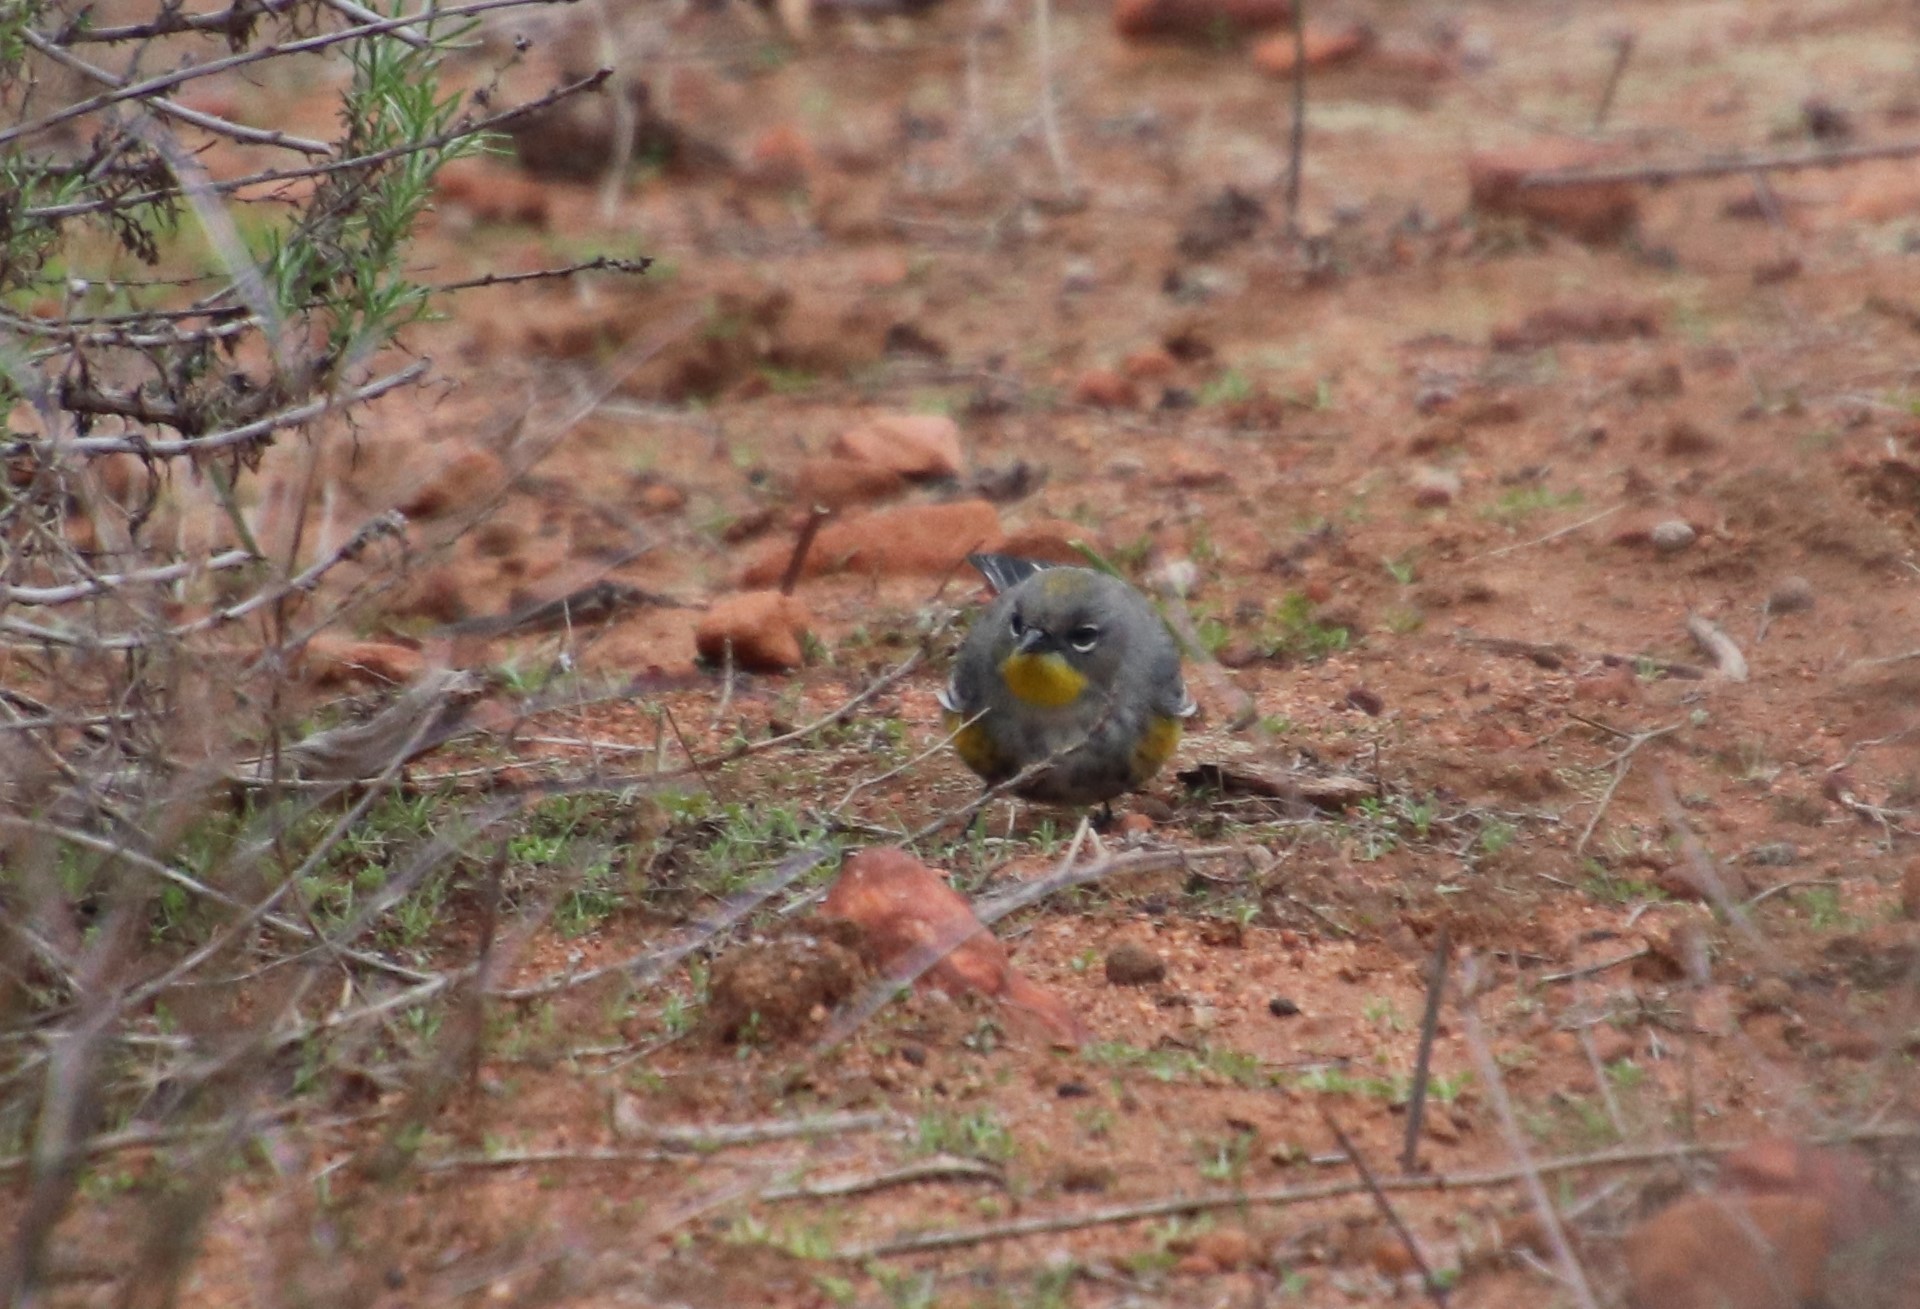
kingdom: Animalia
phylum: Chordata
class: Aves
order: Passeriformes
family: Parulidae
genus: Setophaga
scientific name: Setophaga auduboni
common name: Audubon's warbler
